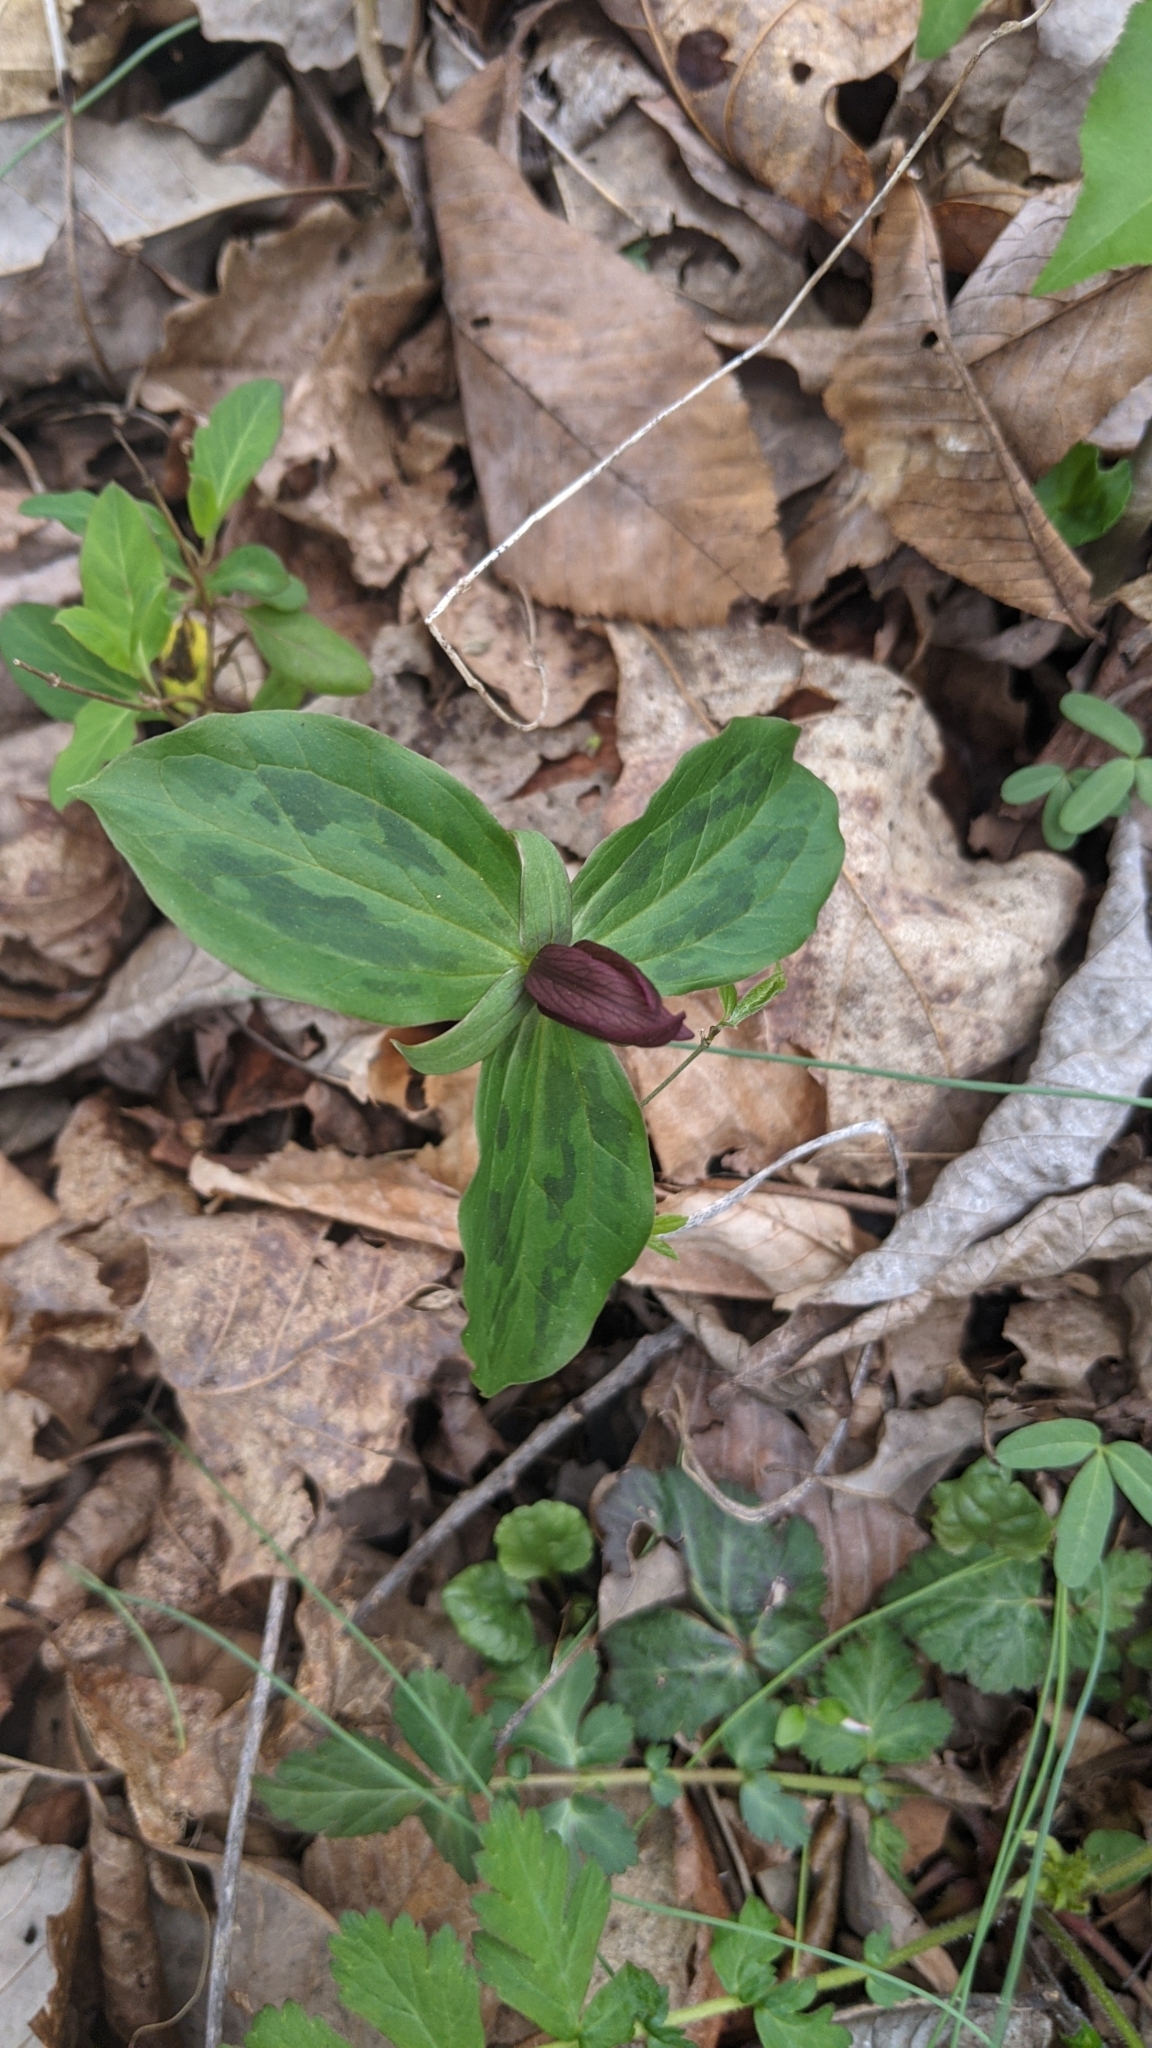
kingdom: Plantae
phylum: Tracheophyta
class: Liliopsida
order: Liliales
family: Melanthiaceae
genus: Trillium
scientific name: Trillium sessile
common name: Sessile trillium
